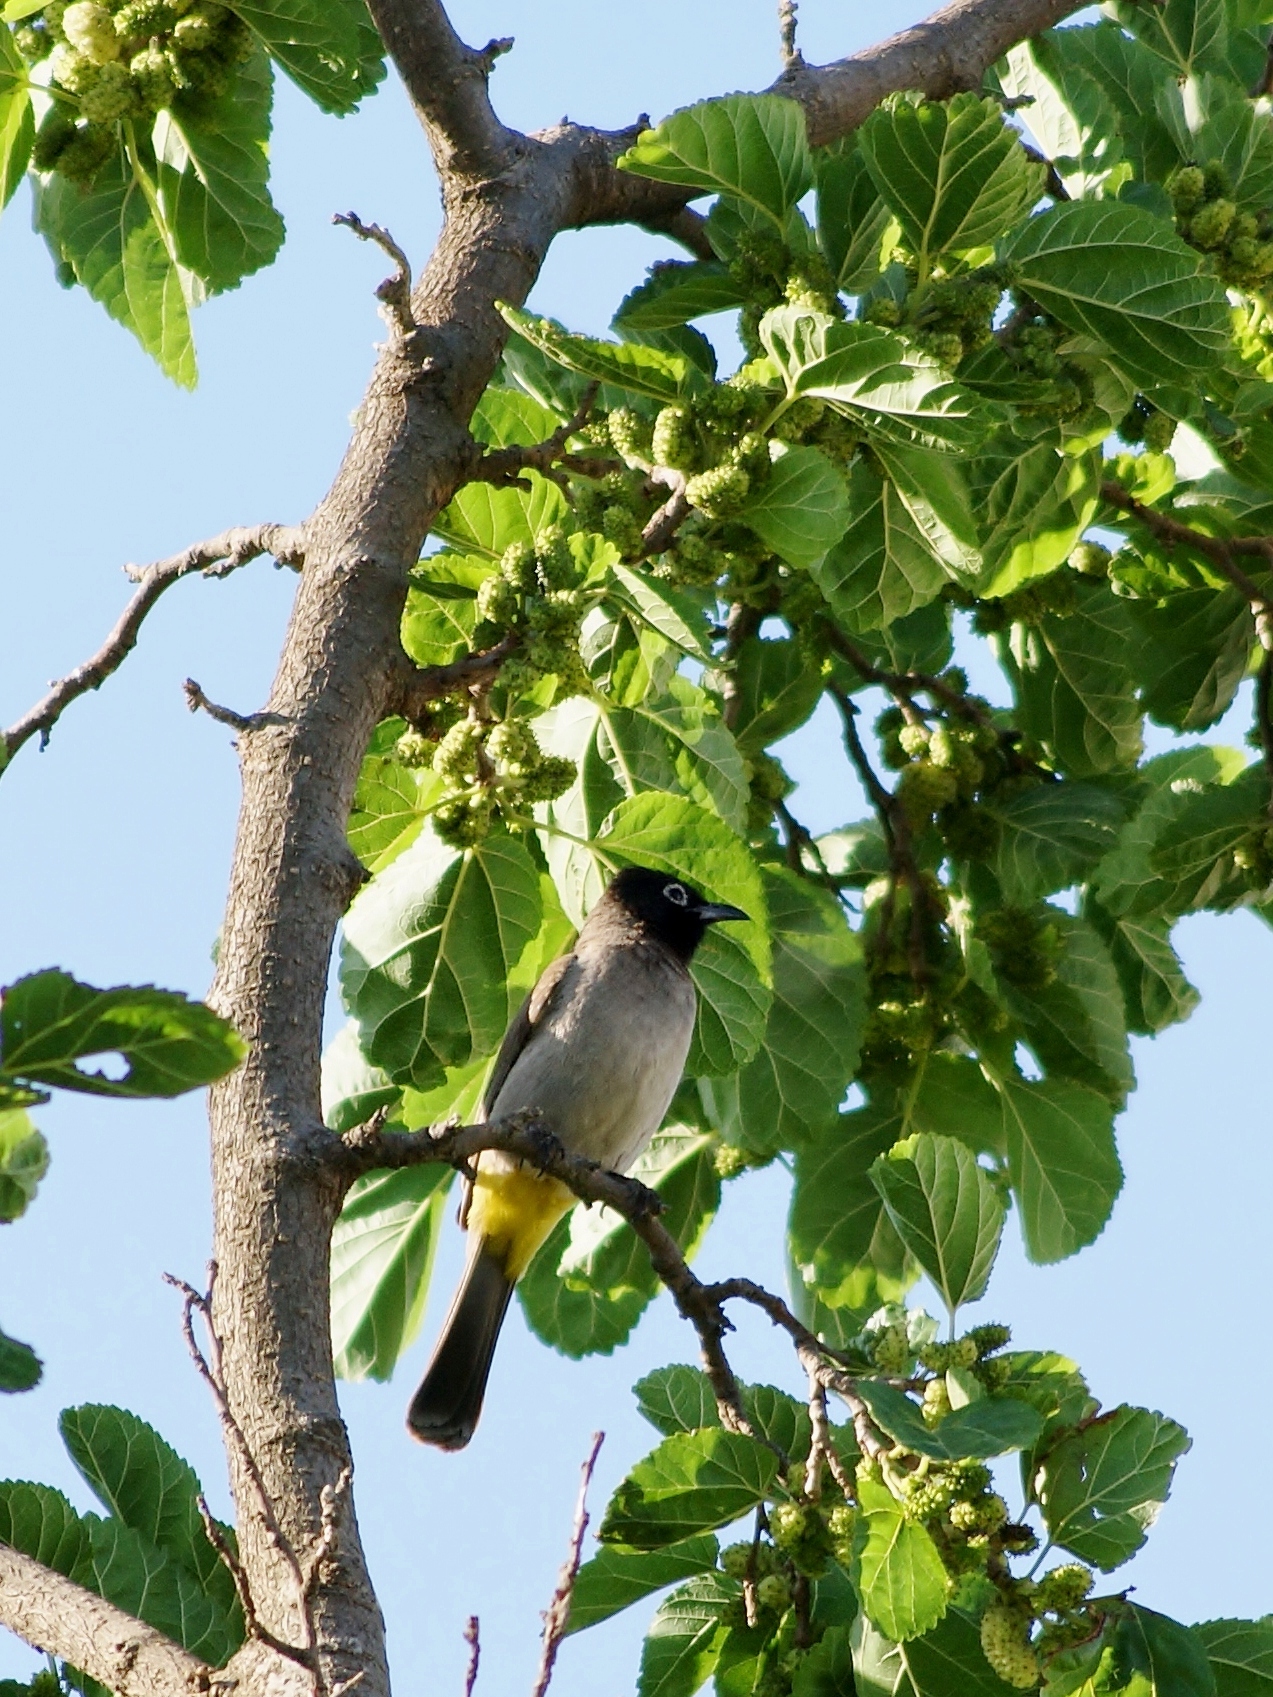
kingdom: Animalia
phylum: Chordata
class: Aves
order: Passeriformes
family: Pycnonotidae
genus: Pycnonotus
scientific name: Pycnonotus xanthopygos
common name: White-spectacled bulbul
